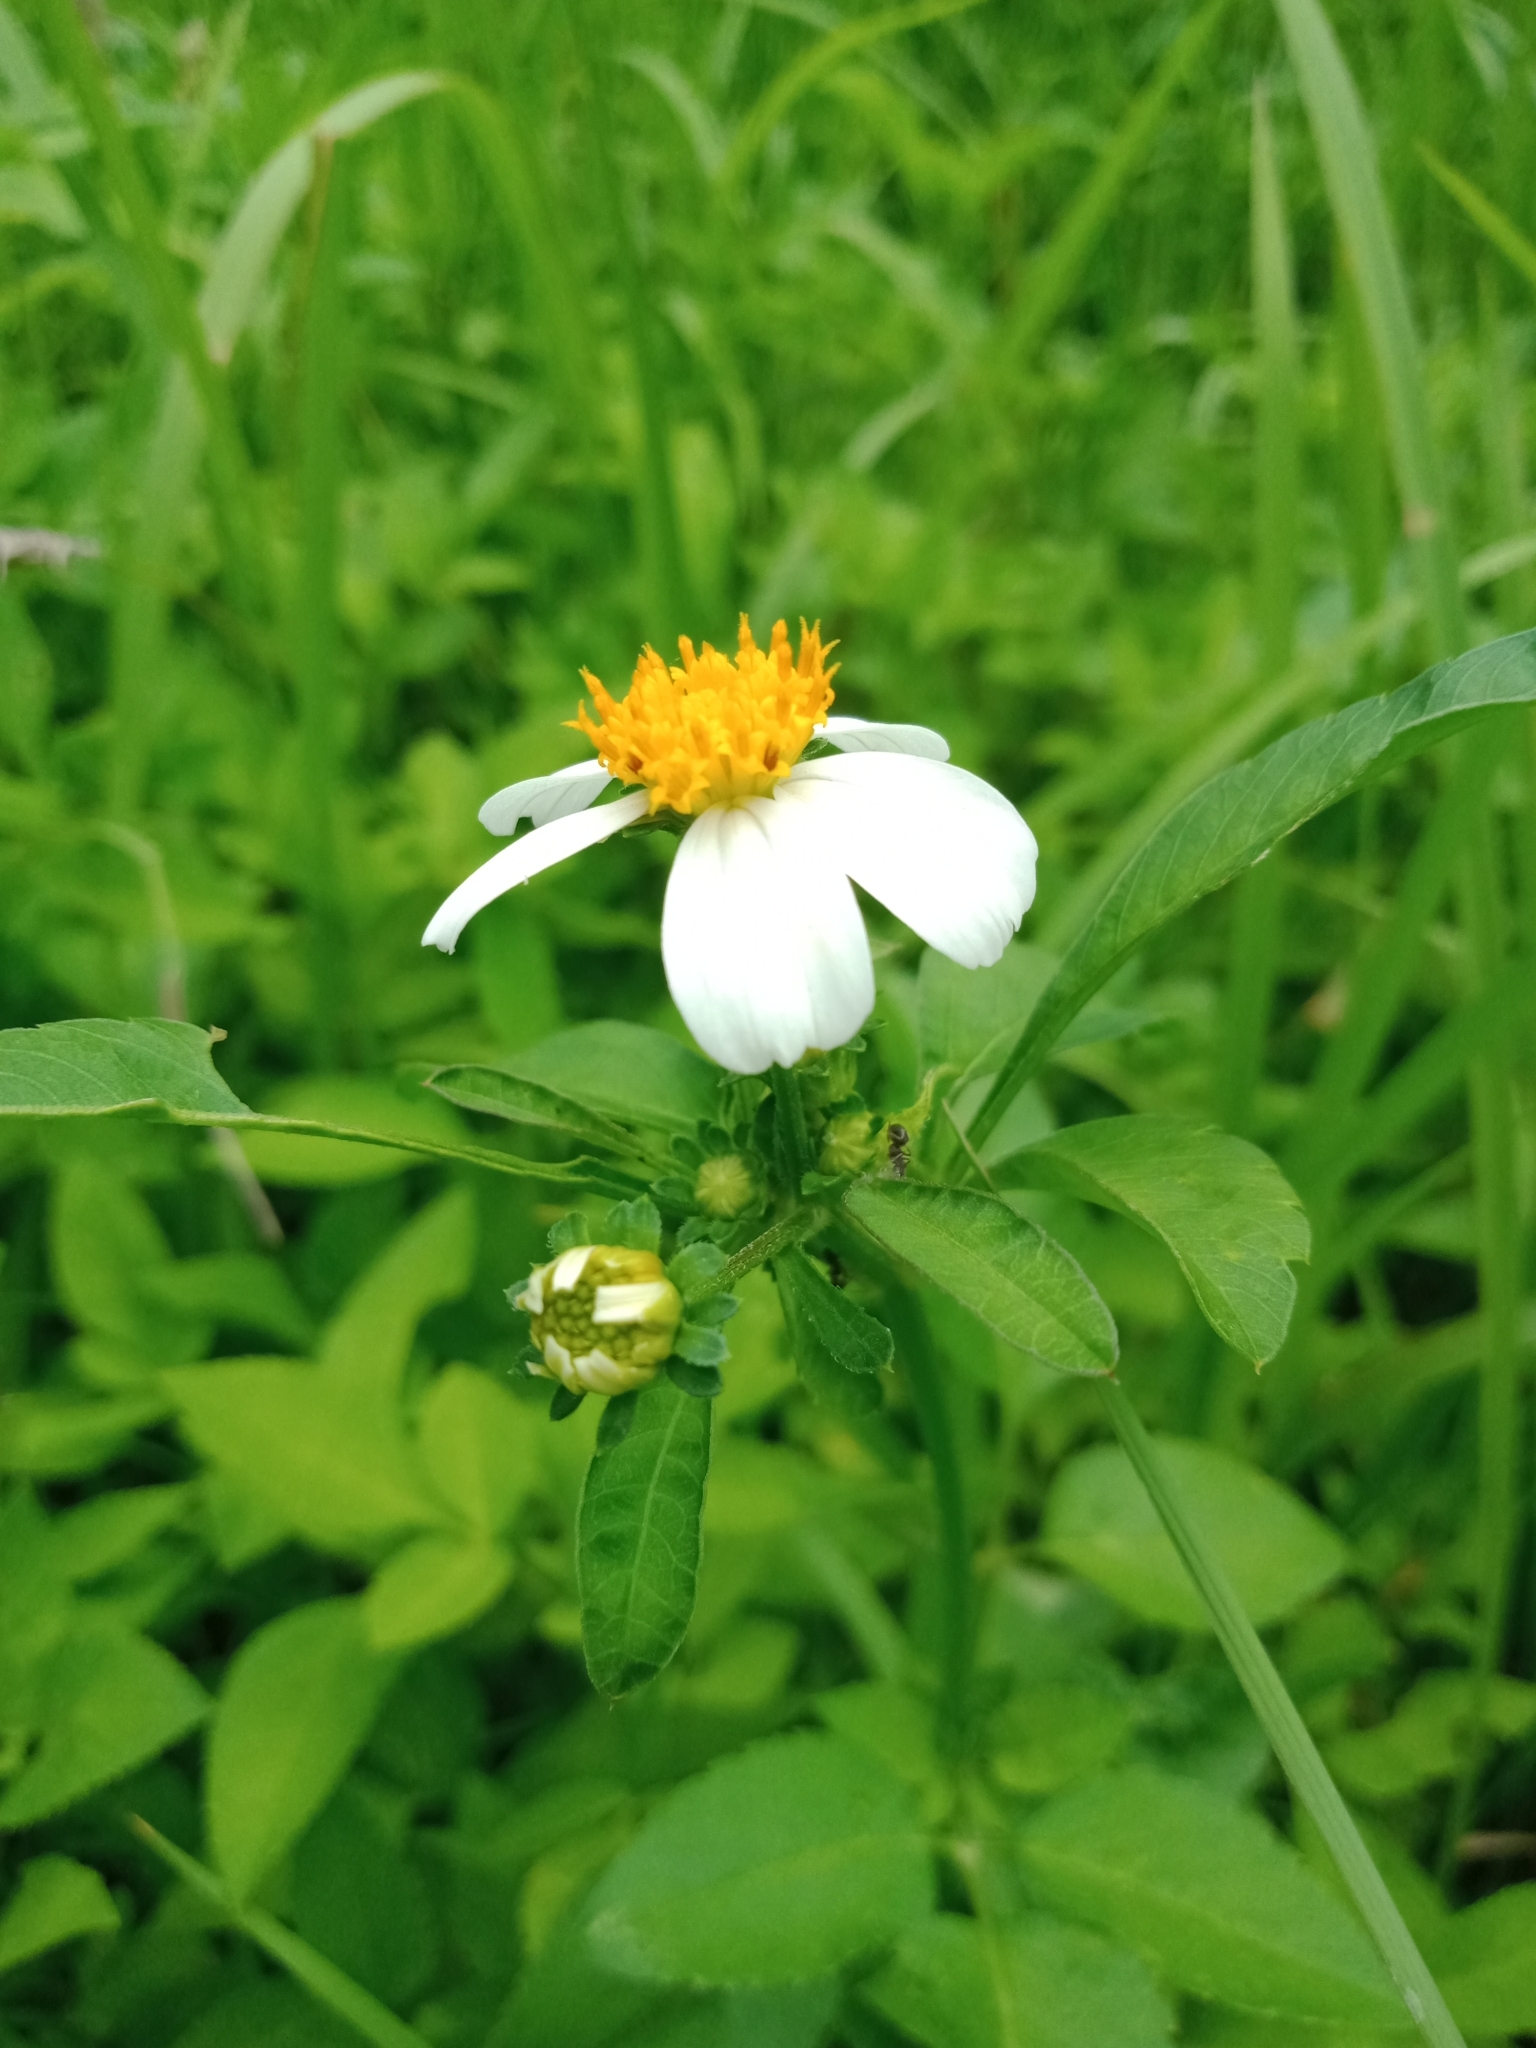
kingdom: Plantae
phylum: Tracheophyta
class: Magnoliopsida
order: Asterales
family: Asteraceae
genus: Bidens
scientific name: Bidens alba
